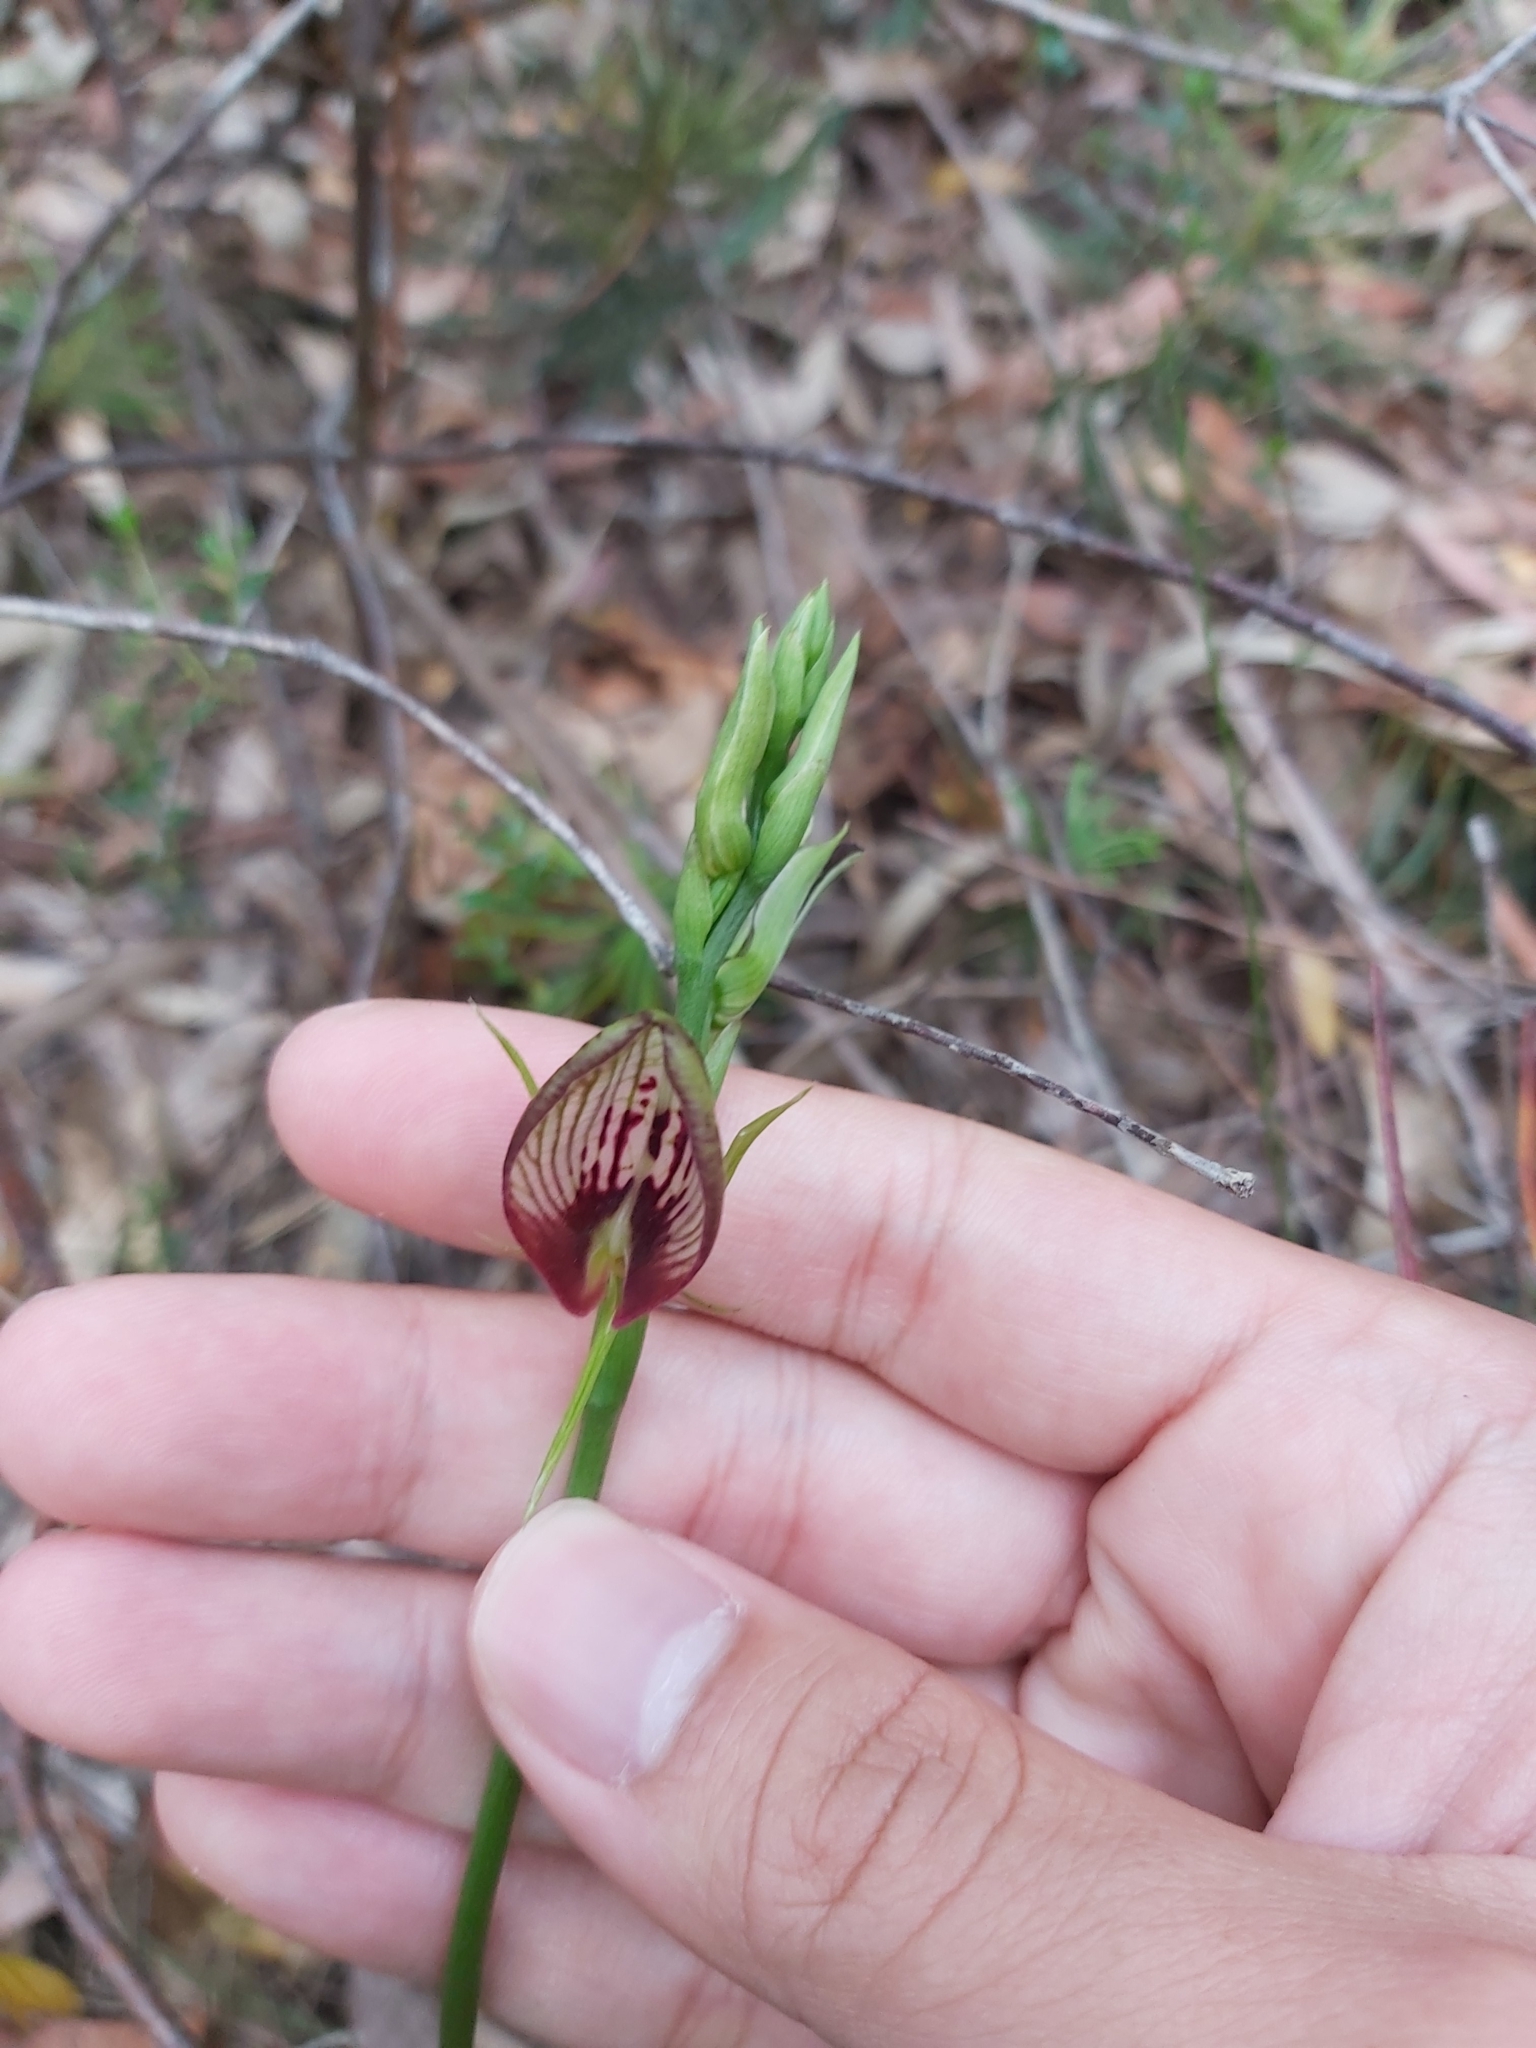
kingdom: Plantae
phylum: Tracheophyta
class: Liliopsida
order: Asparagales
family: Orchidaceae
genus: Cryptostylis
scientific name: Cryptostylis erecta
